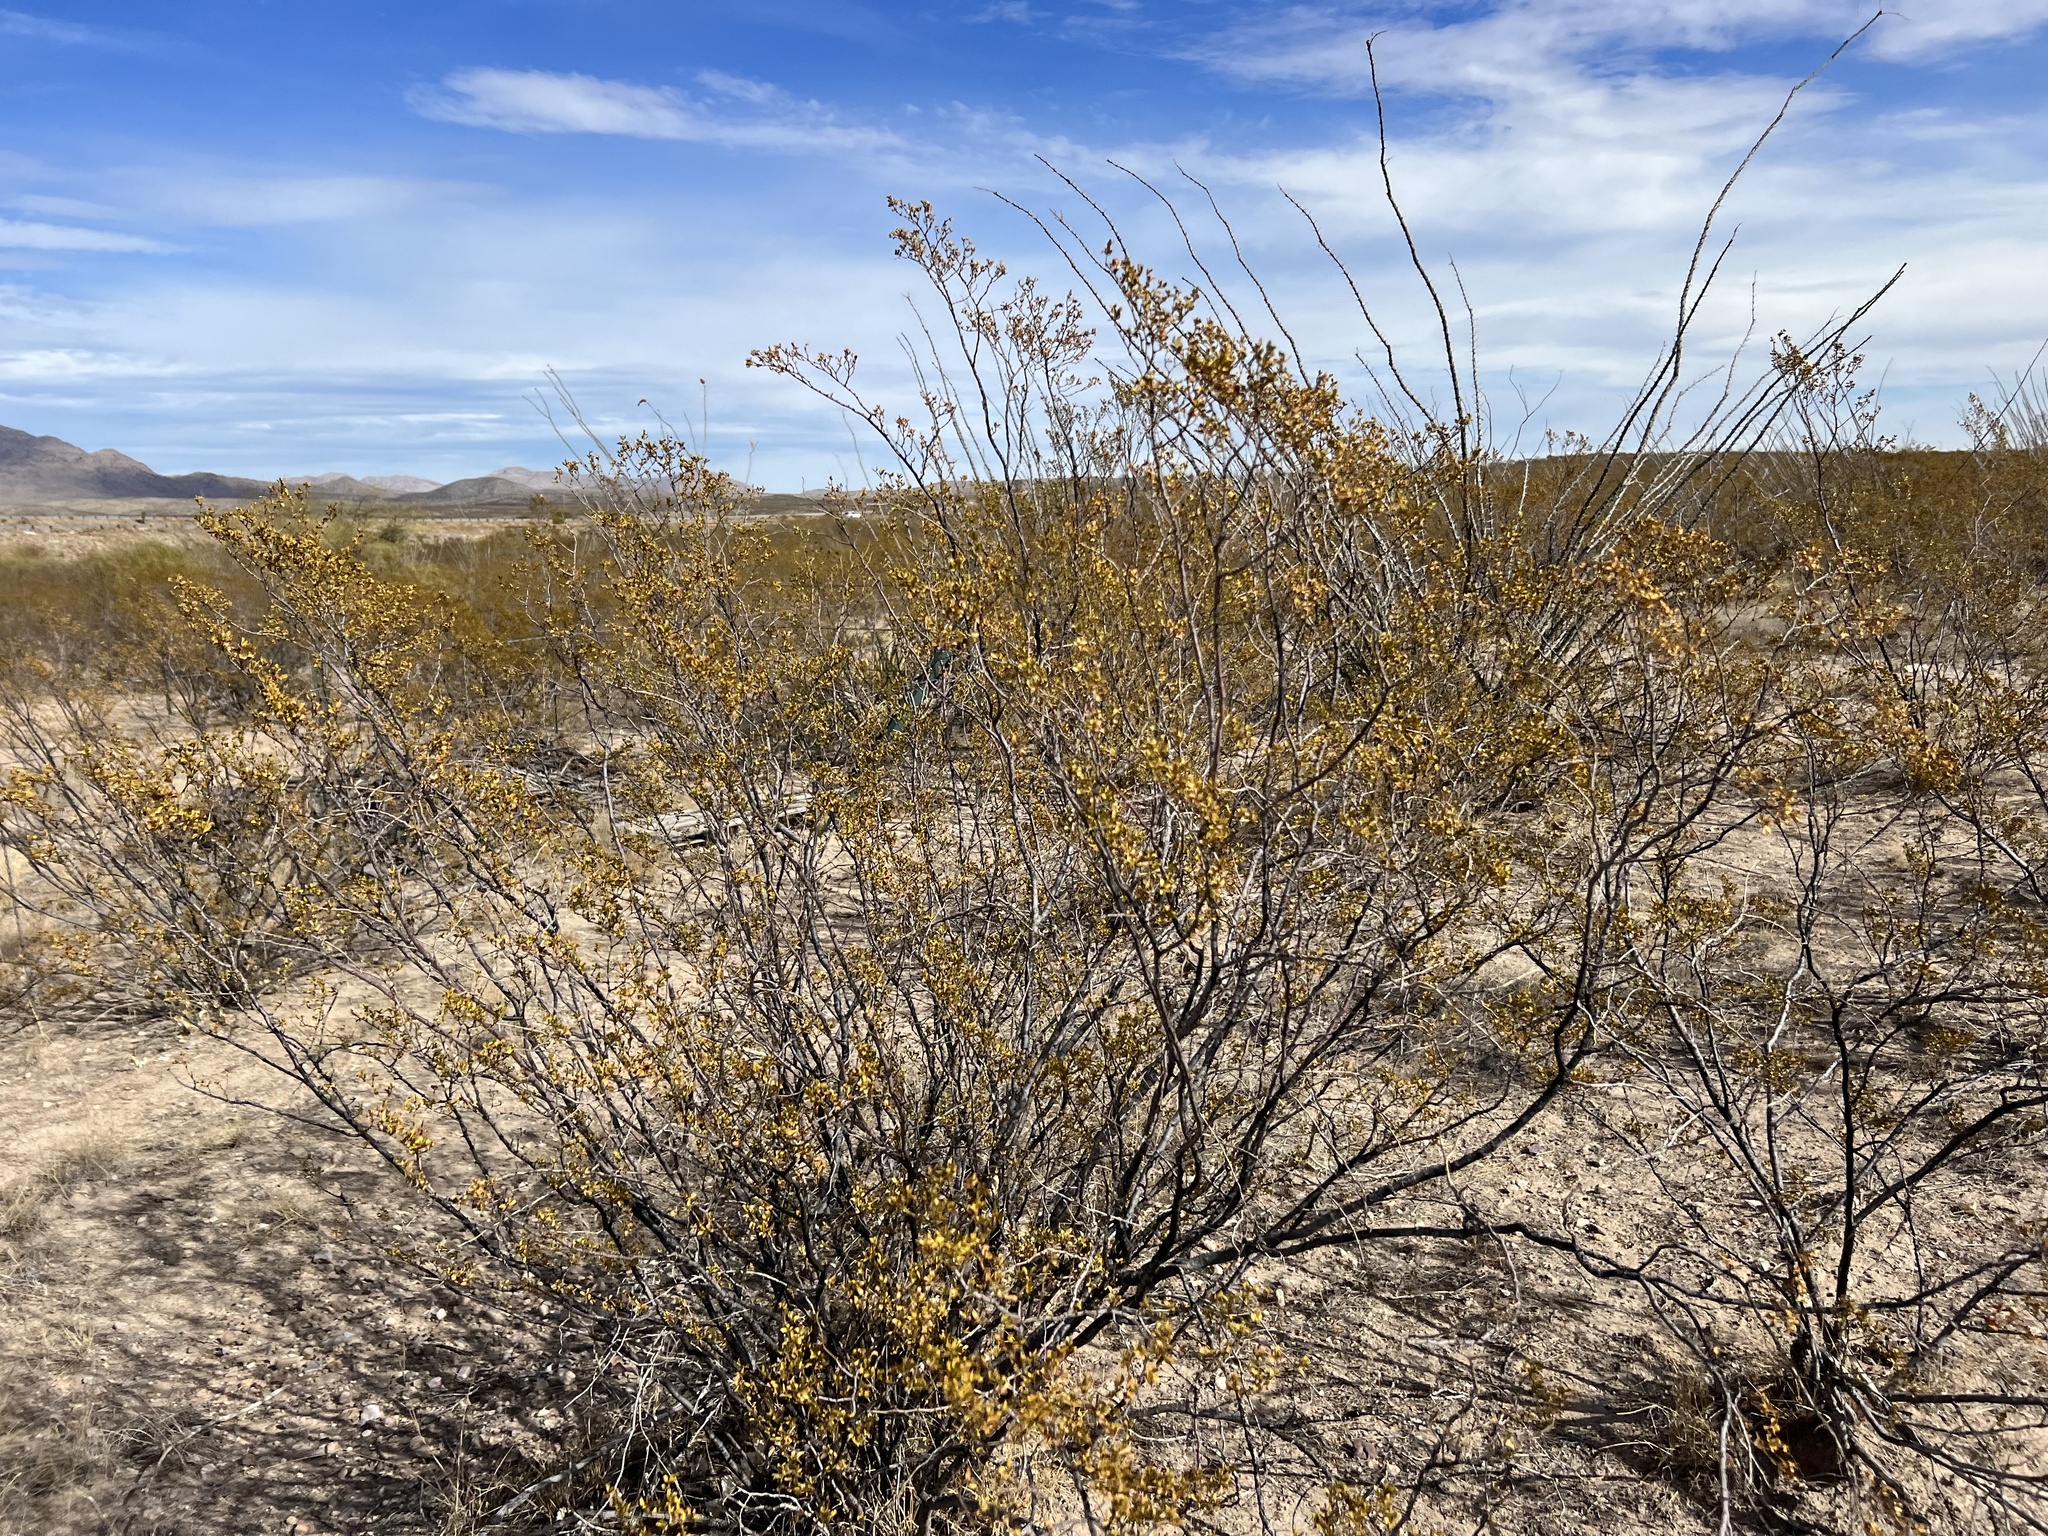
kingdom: Plantae
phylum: Tracheophyta
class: Magnoliopsida
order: Zygophyllales
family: Zygophyllaceae
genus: Larrea
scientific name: Larrea tridentata
